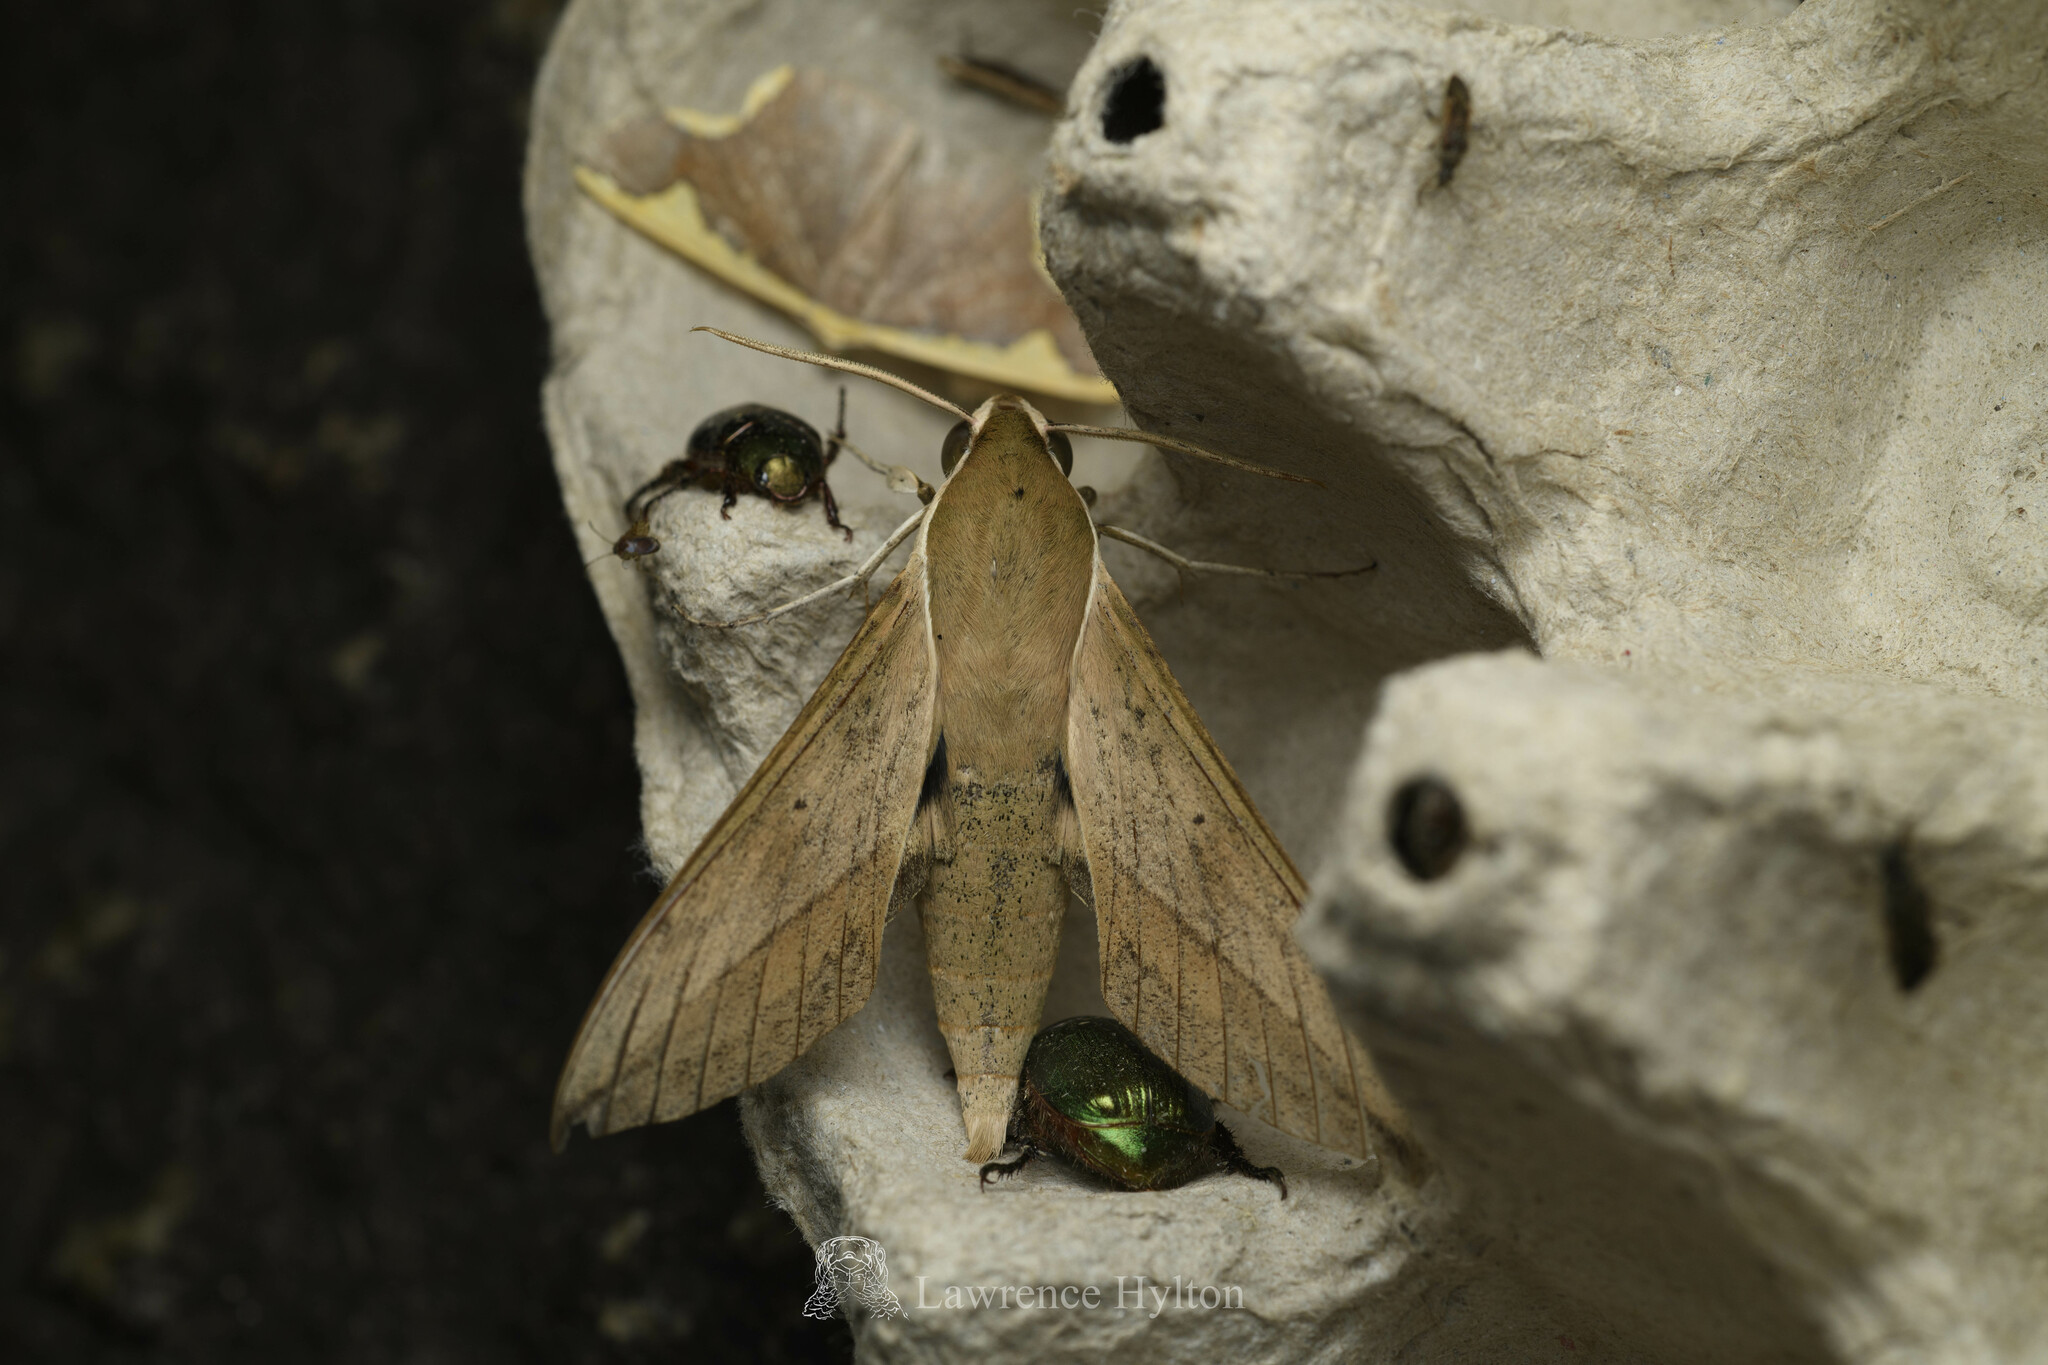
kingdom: Animalia
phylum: Arthropoda
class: Insecta
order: Lepidoptera
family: Sphingidae
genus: Theretra
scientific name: Theretra clotho
